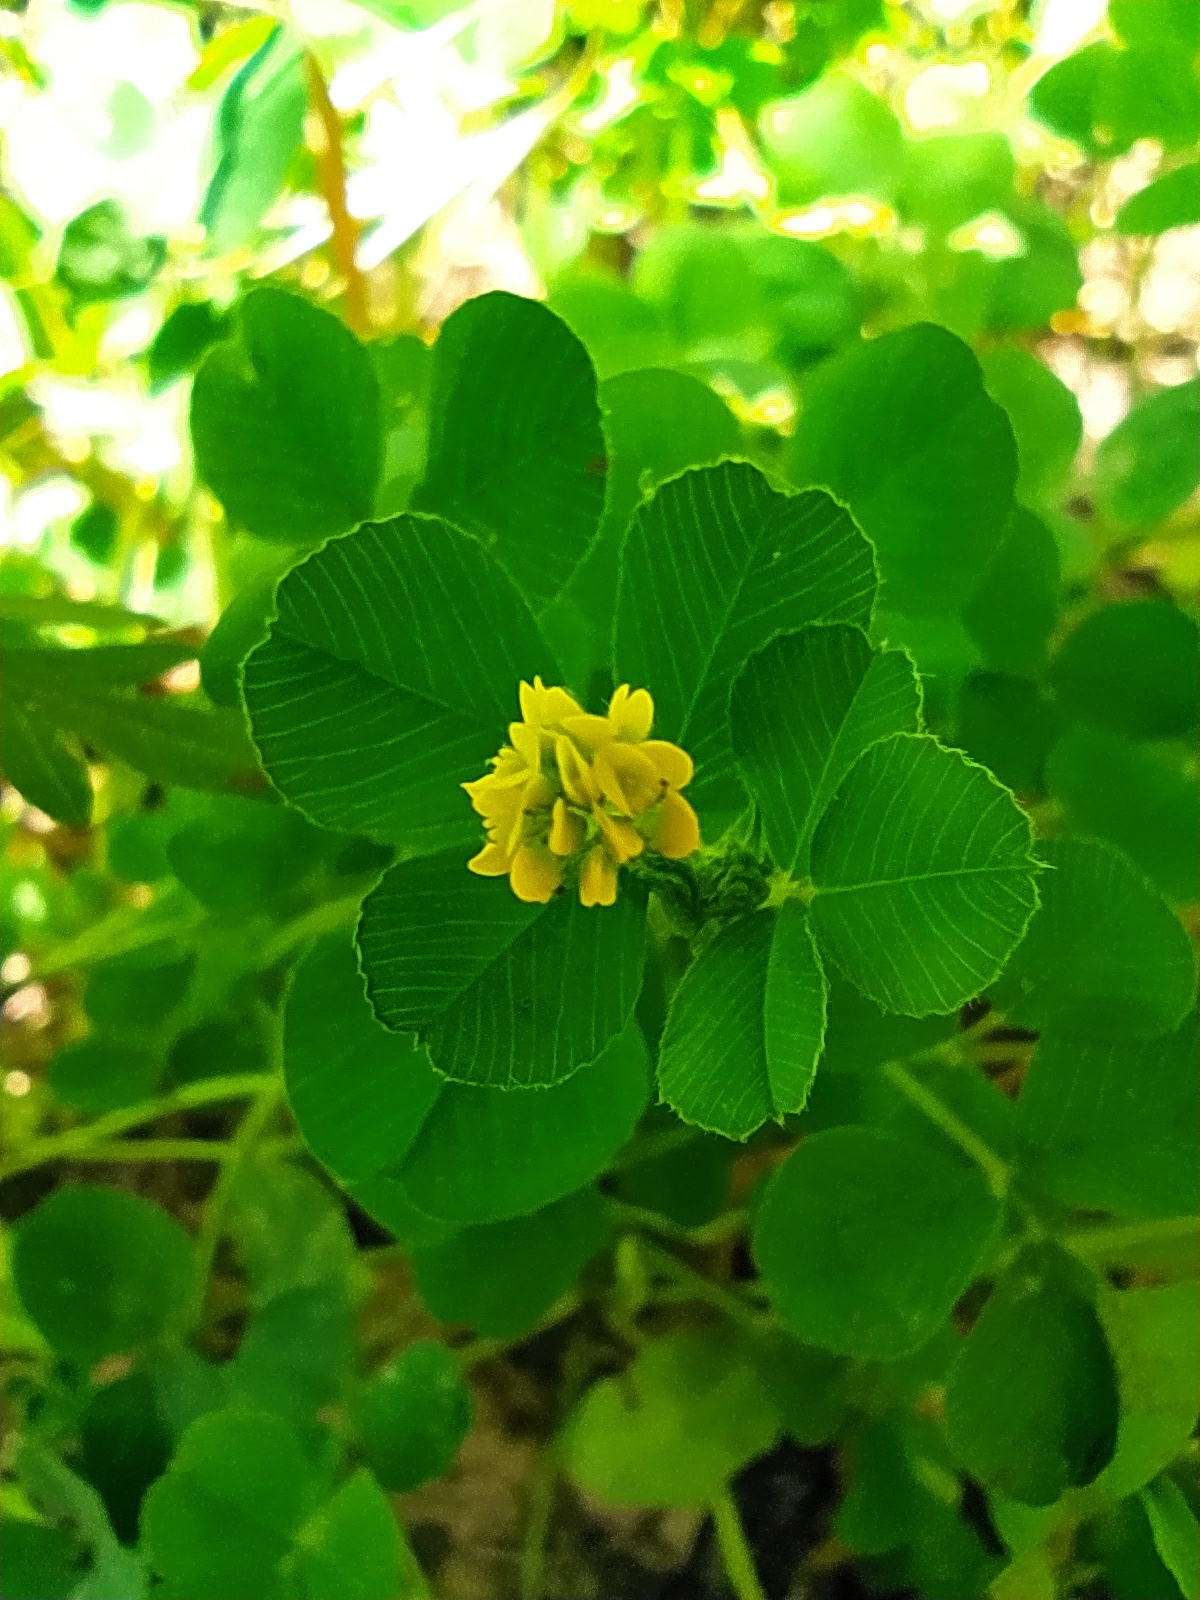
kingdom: Plantae
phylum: Tracheophyta
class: Magnoliopsida
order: Fabales
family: Fabaceae
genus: Medicago
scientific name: Medicago lupulina
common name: Black medick
